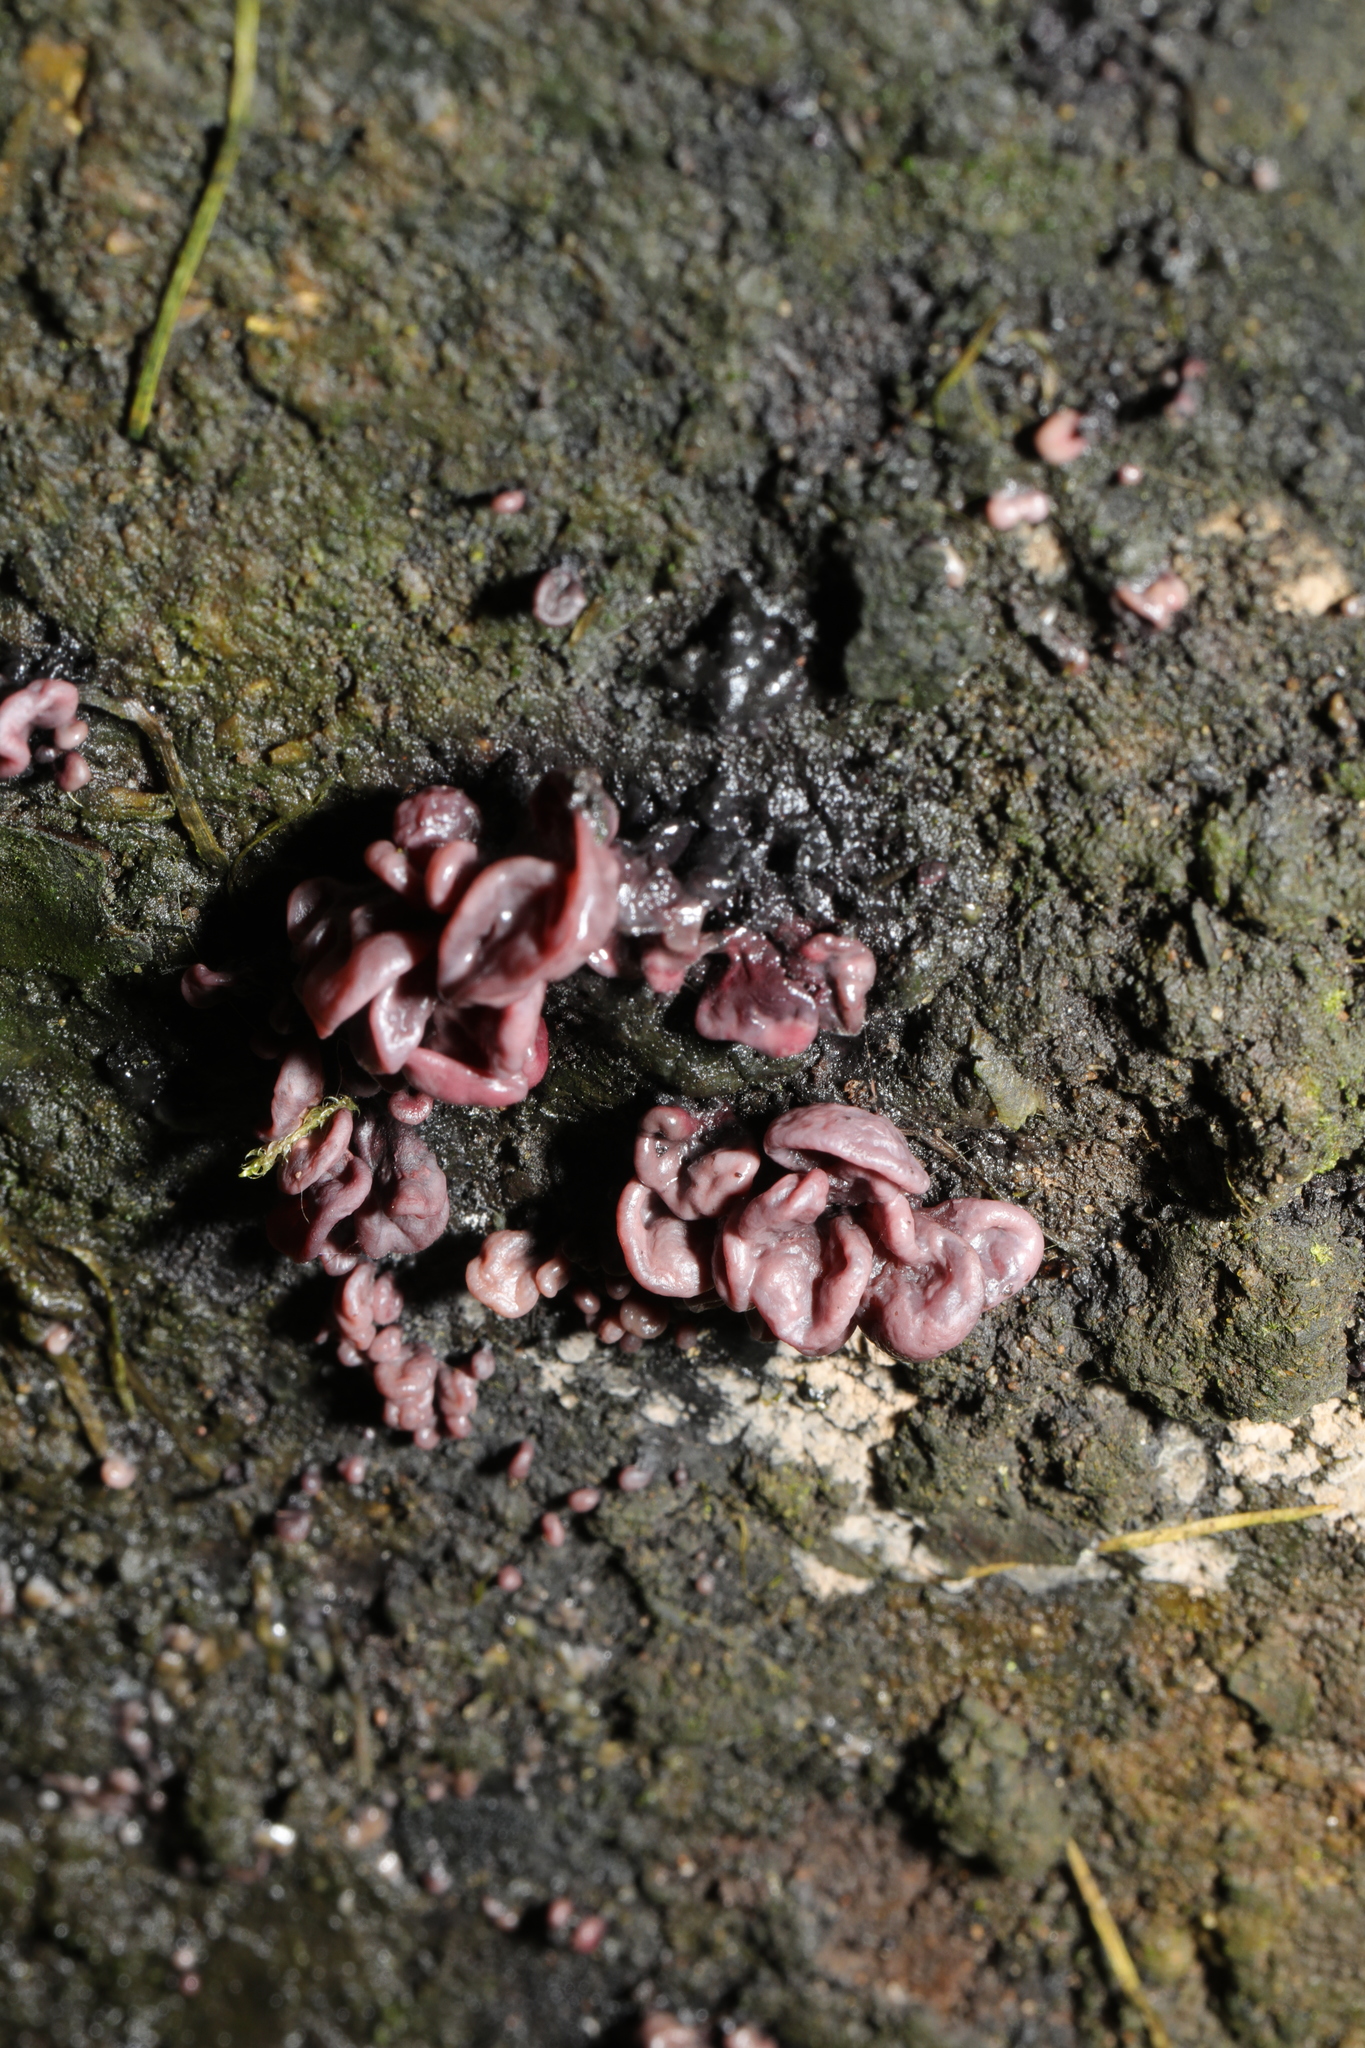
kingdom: Fungi
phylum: Ascomycota
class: Leotiomycetes
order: Helotiales
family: Gelatinodiscaceae
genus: Ascocoryne
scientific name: Ascocoryne sarcoides
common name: Purple jellydisc
